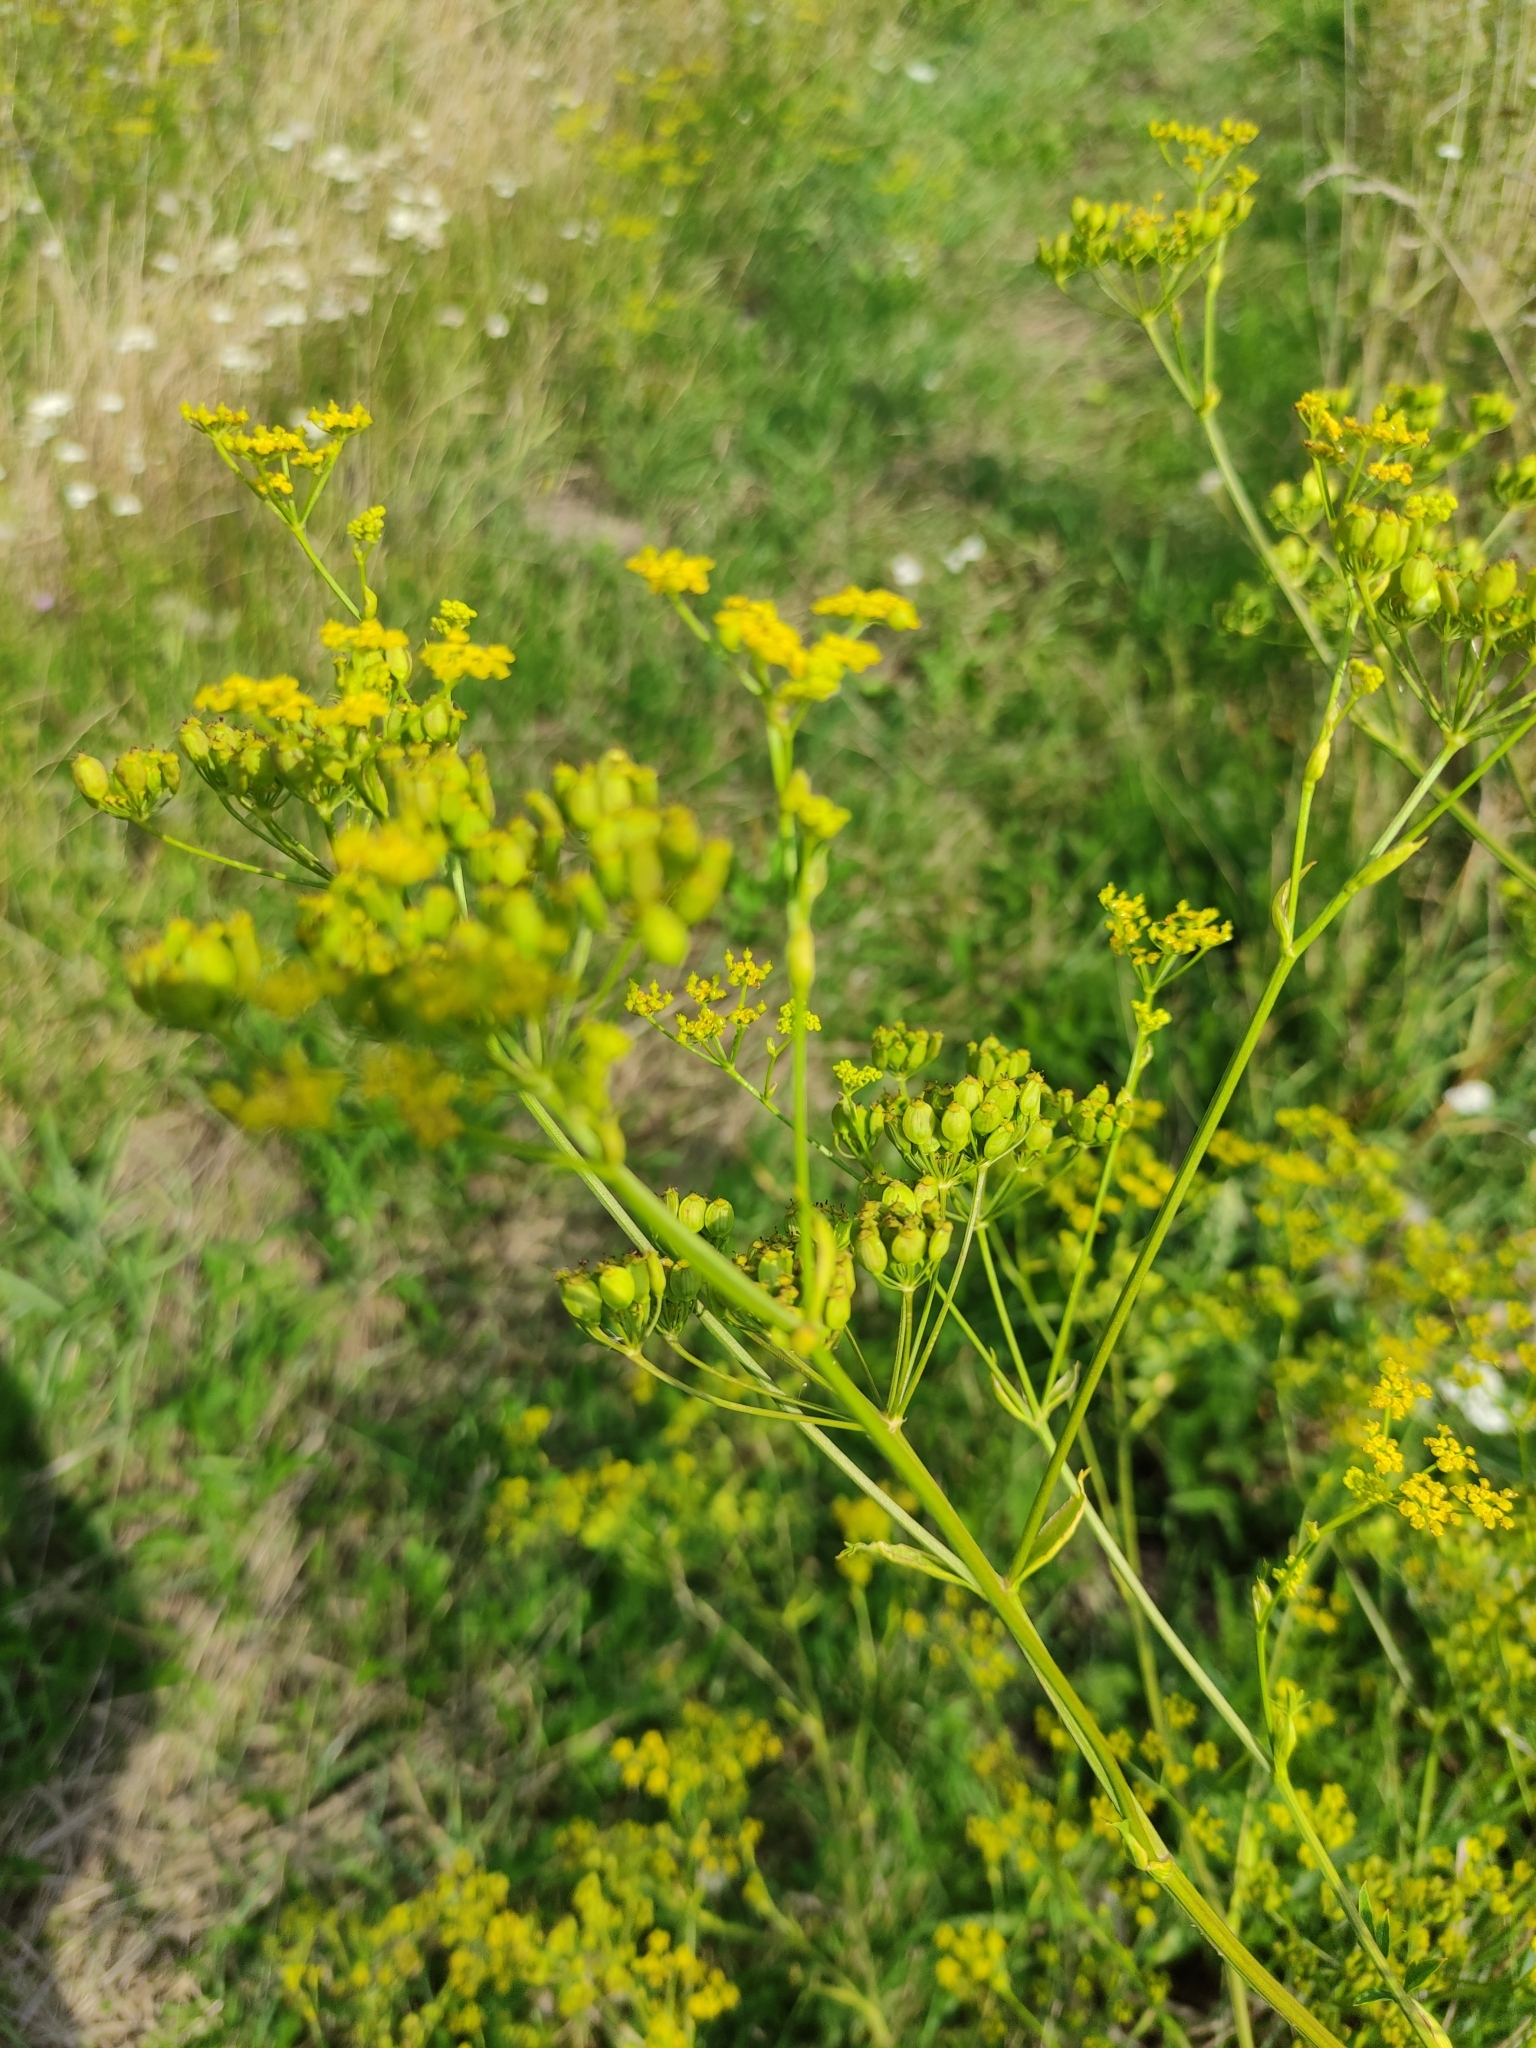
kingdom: Plantae
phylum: Tracheophyta
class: Magnoliopsida
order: Apiales
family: Apiaceae
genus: Pastinaca
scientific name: Pastinaca sativa
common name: Wild parsnip
